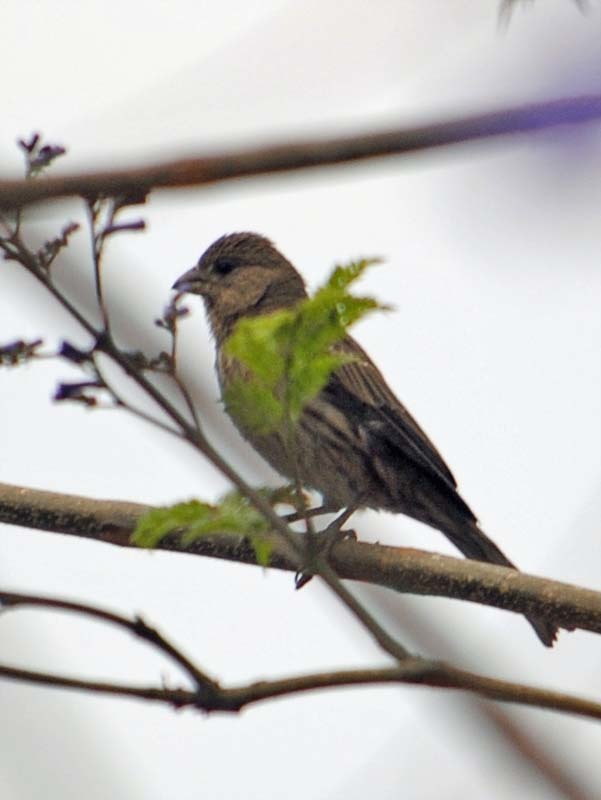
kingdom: Animalia
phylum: Chordata
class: Aves
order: Passeriformes
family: Fringillidae
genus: Haemorhous
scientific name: Haemorhous mexicanus
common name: House finch
